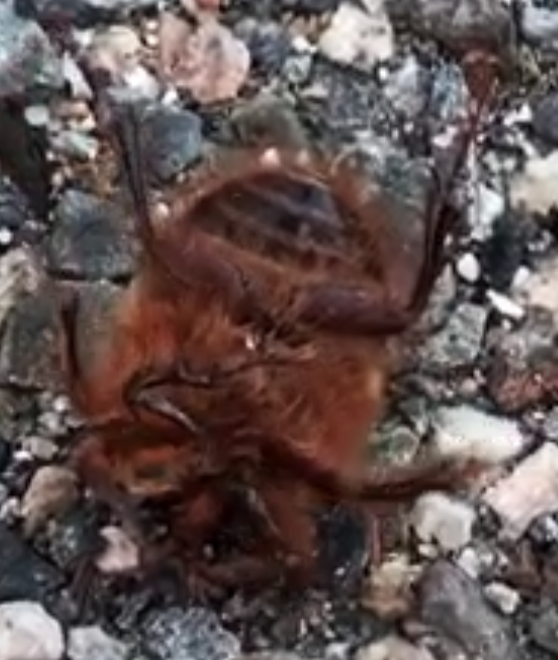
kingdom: Animalia
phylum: Arthropoda
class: Insecta
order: Coleoptera
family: Pleocomidae
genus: Pleocoma
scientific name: Pleocoma australis
